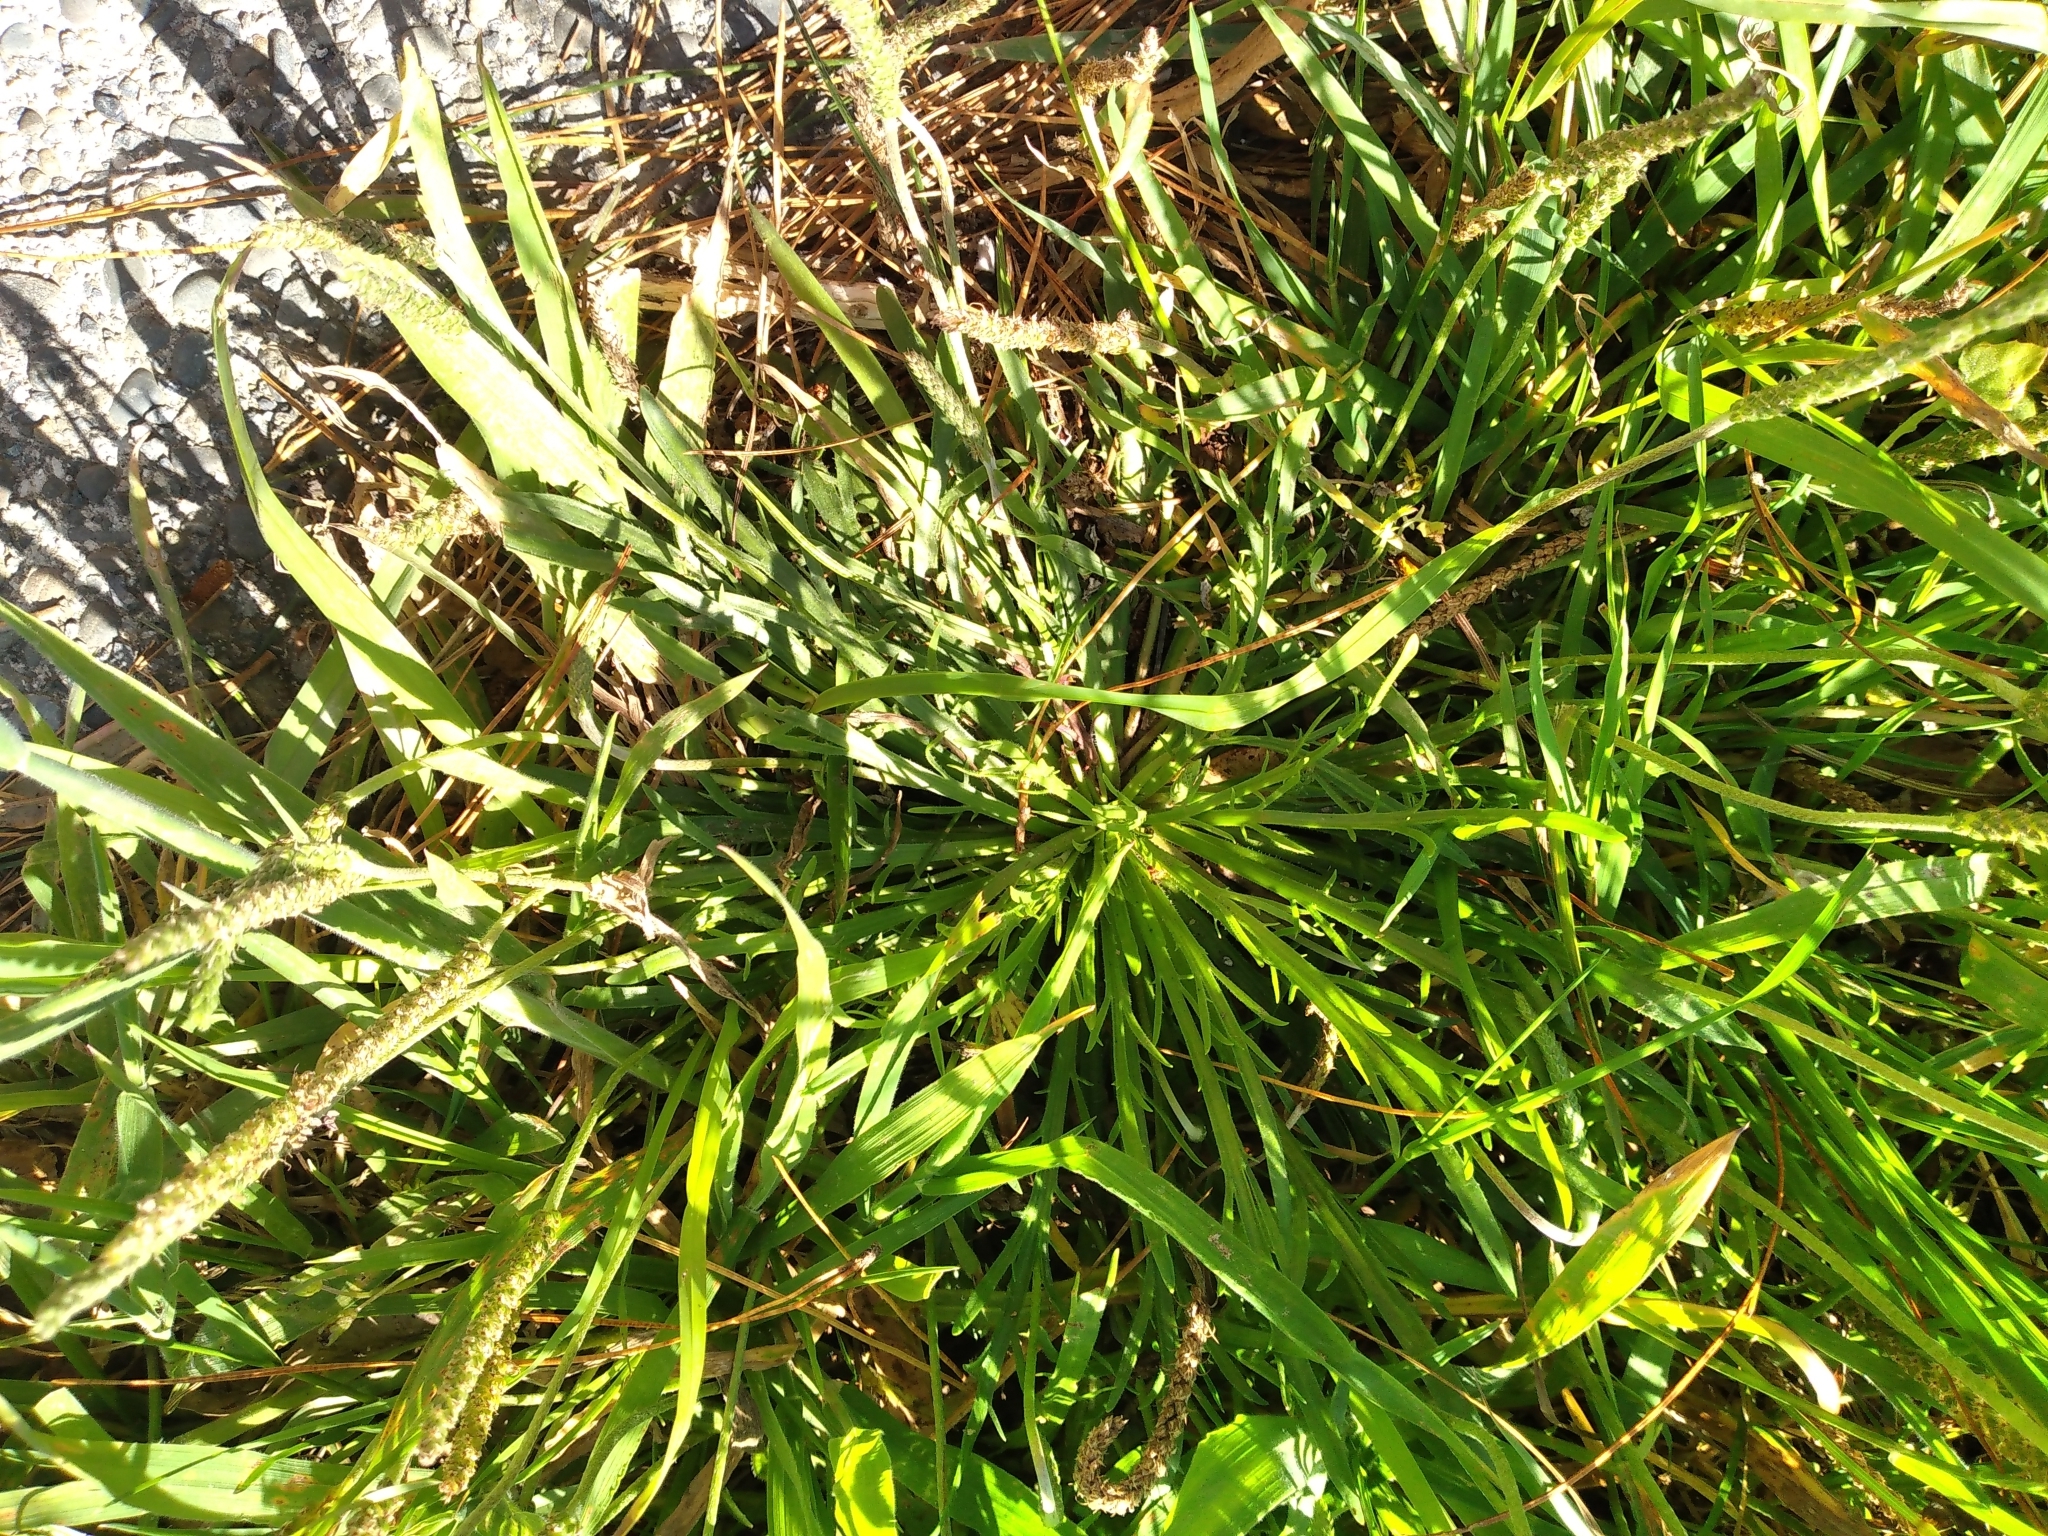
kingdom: Plantae
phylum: Tracheophyta
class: Magnoliopsida
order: Lamiales
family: Plantaginaceae
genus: Plantago
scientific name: Plantago coronopus
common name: Buck's-horn plantain
